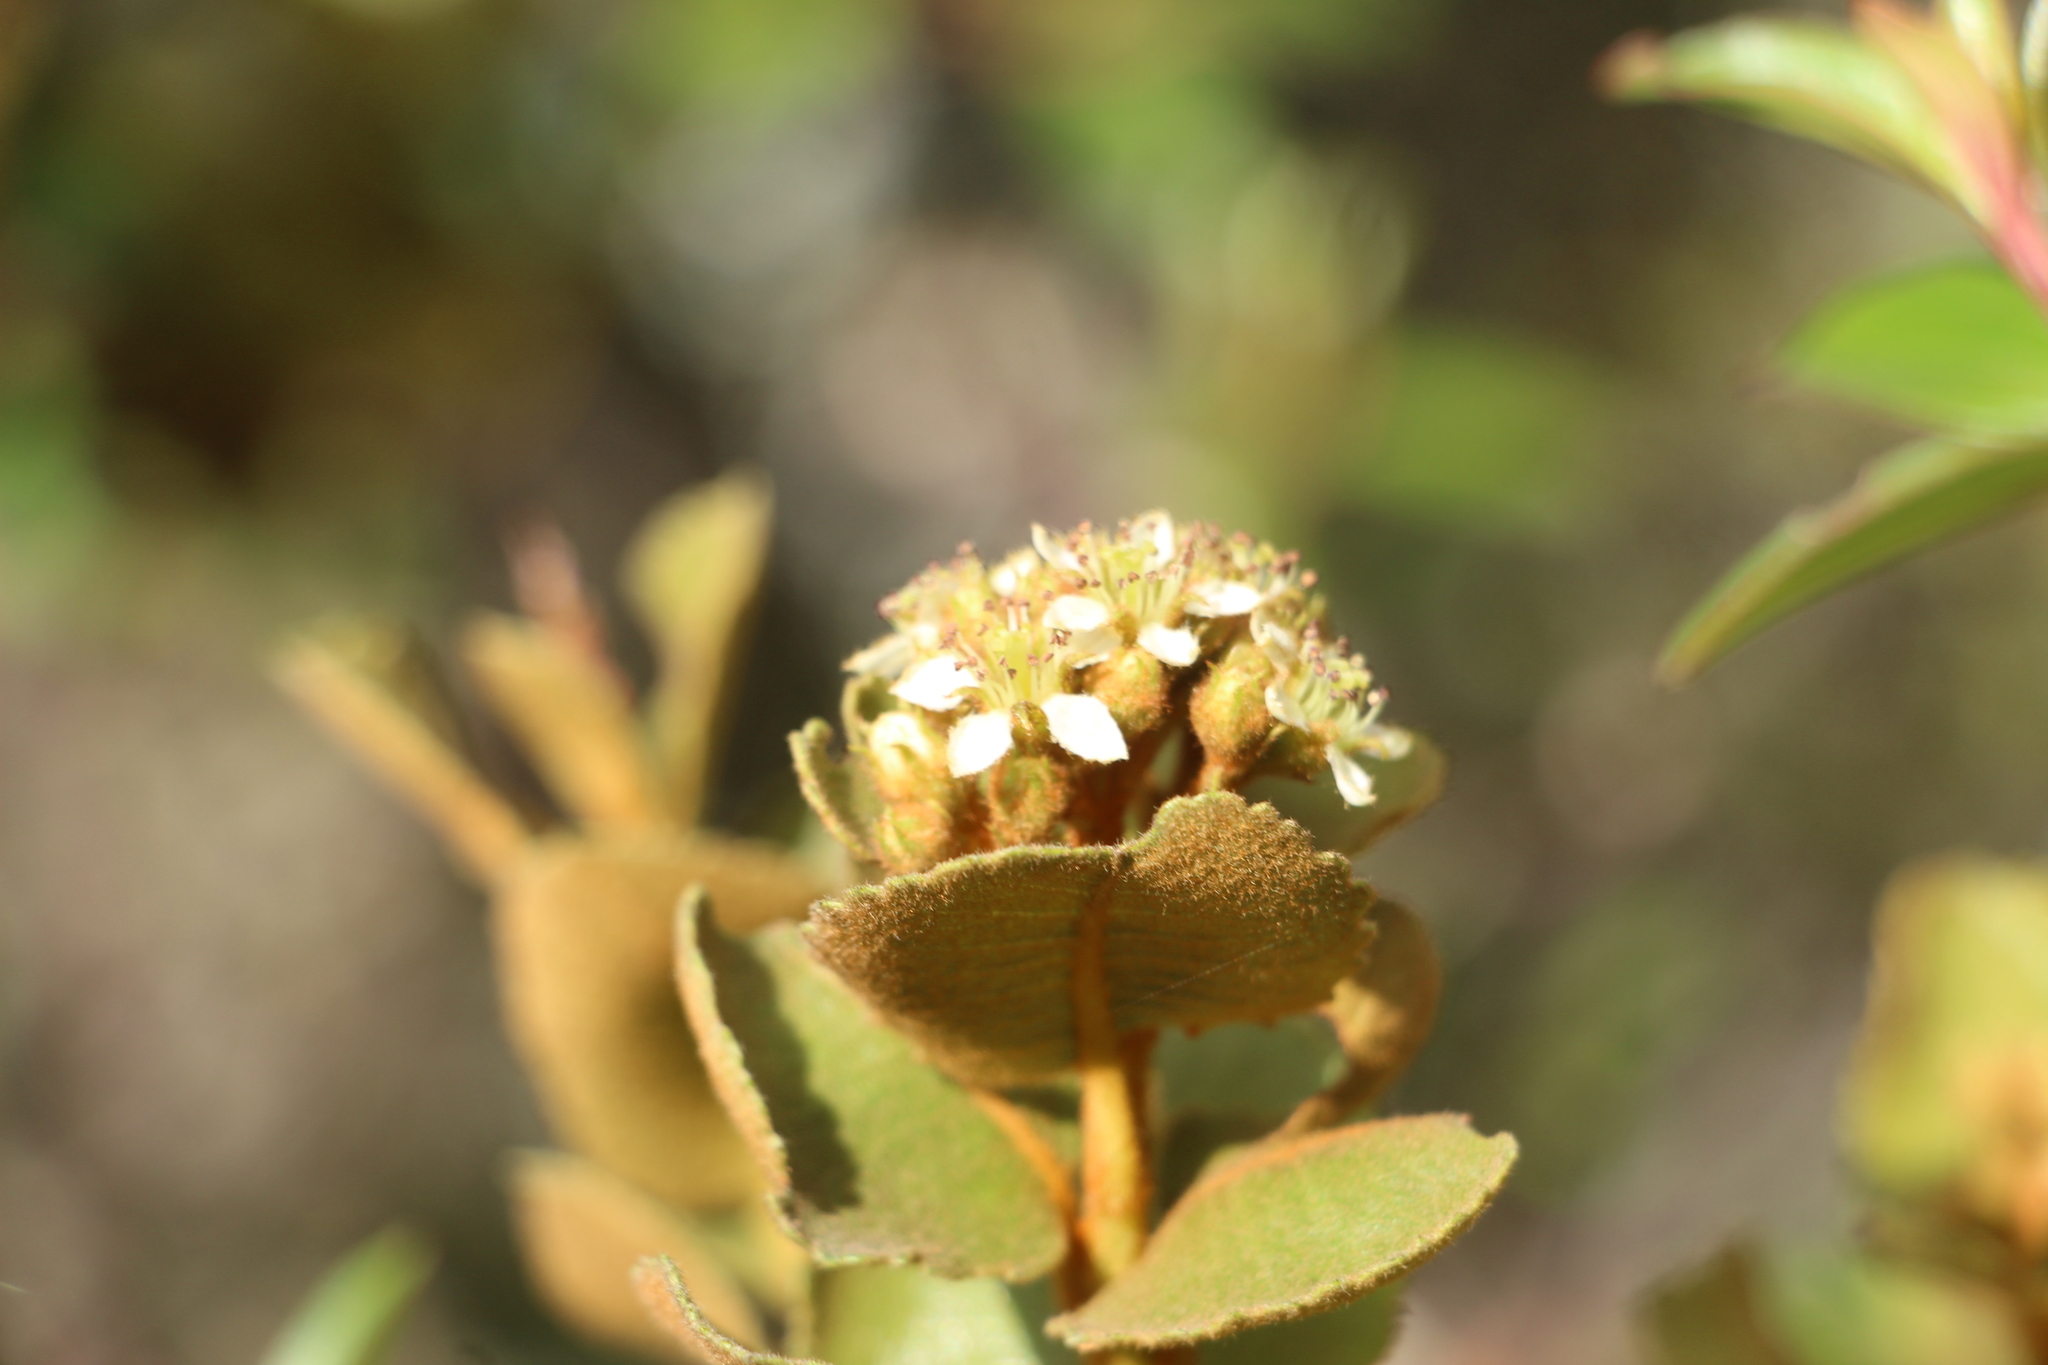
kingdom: Plantae
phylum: Tracheophyta
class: Magnoliopsida
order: Rosales
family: Rosaceae
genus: Hesperomeles
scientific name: Hesperomeles goudotiana
